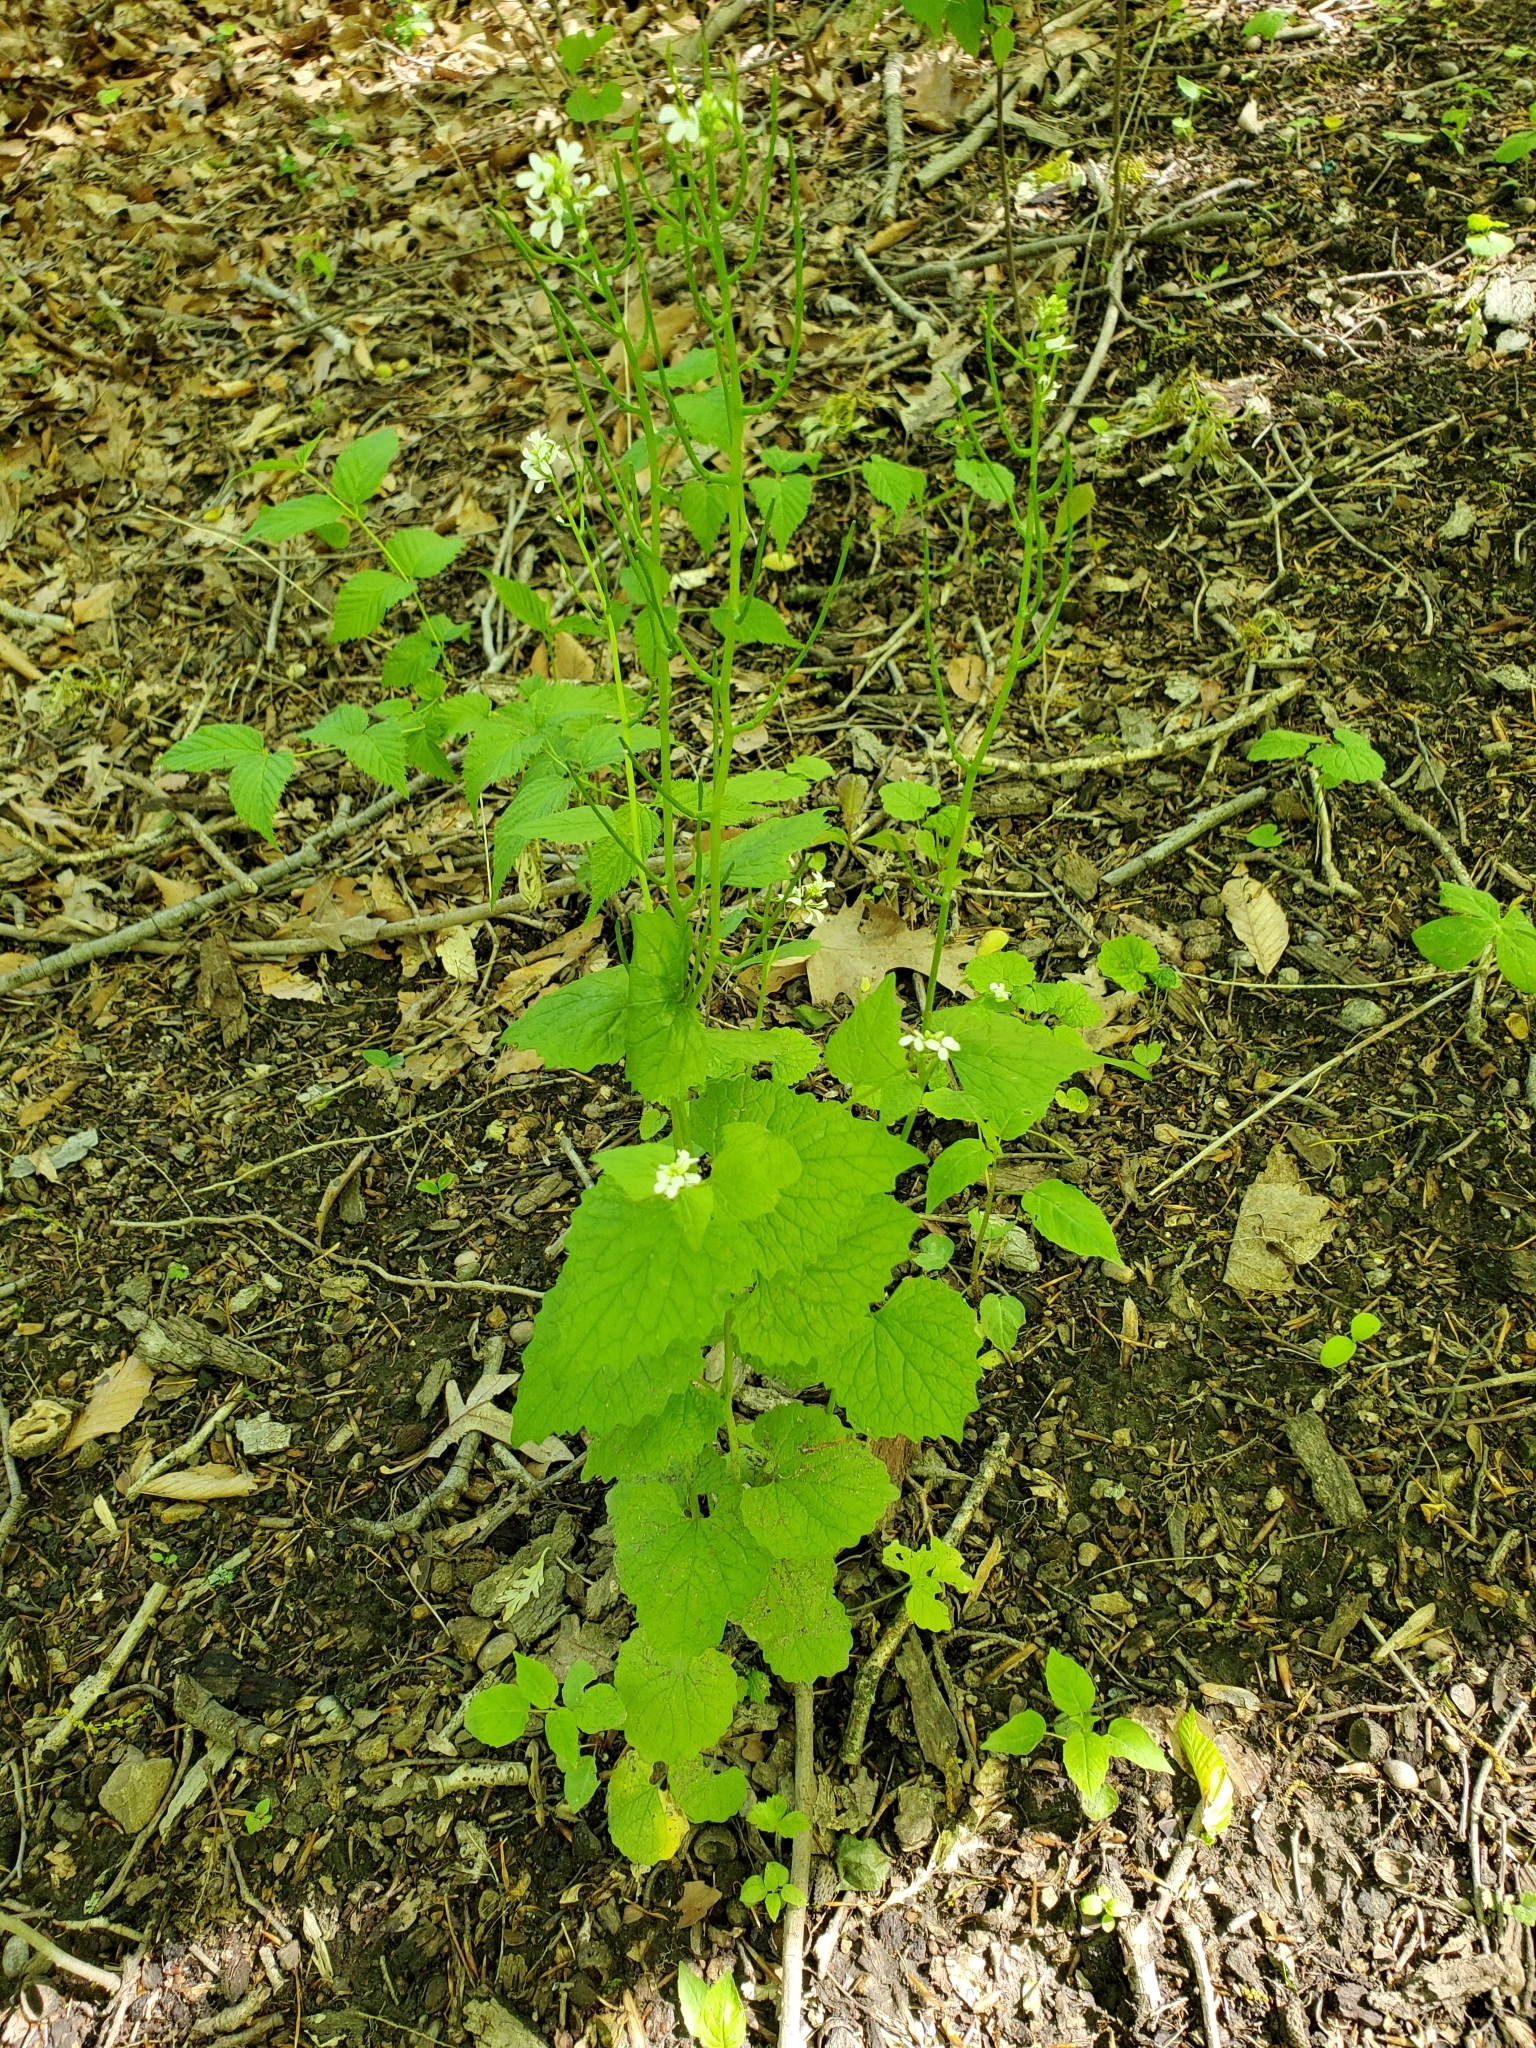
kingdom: Plantae
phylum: Tracheophyta
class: Magnoliopsida
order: Brassicales
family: Brassicaceae
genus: Alliaria
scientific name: Alliaria petiolata
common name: Garlic mustard
